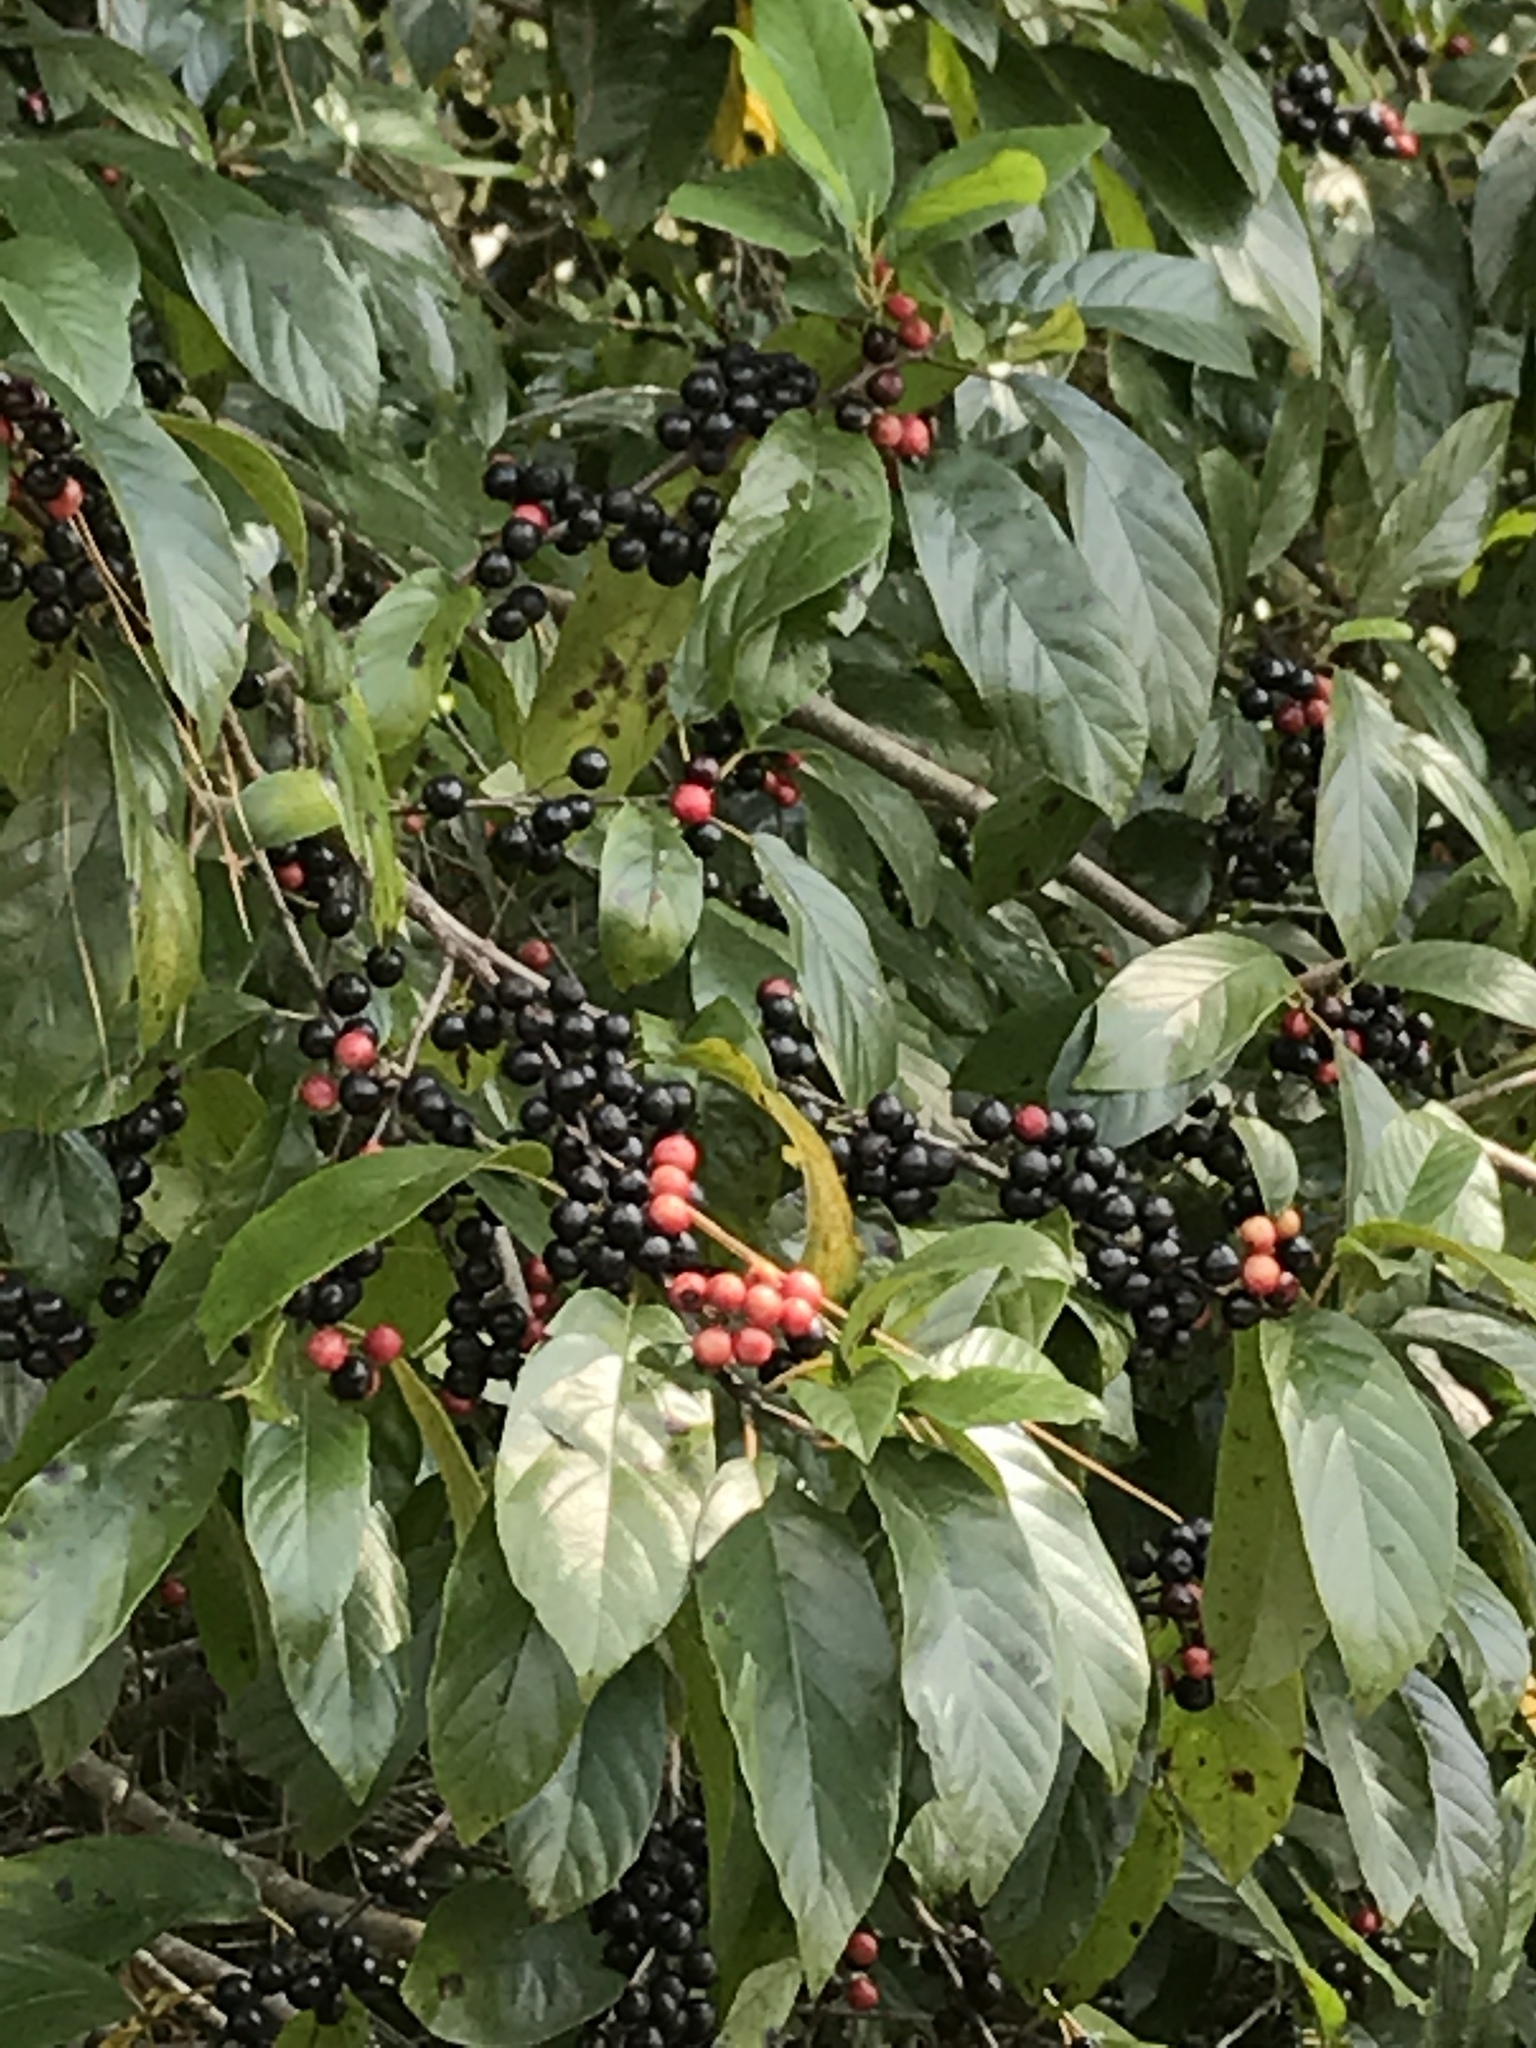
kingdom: Plantae
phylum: Tracheophyta
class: Magnoliopsida
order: Rosales
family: Rhamnaceae
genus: Frangula
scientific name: Frangula caroliniana
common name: Carolina buckthorn
